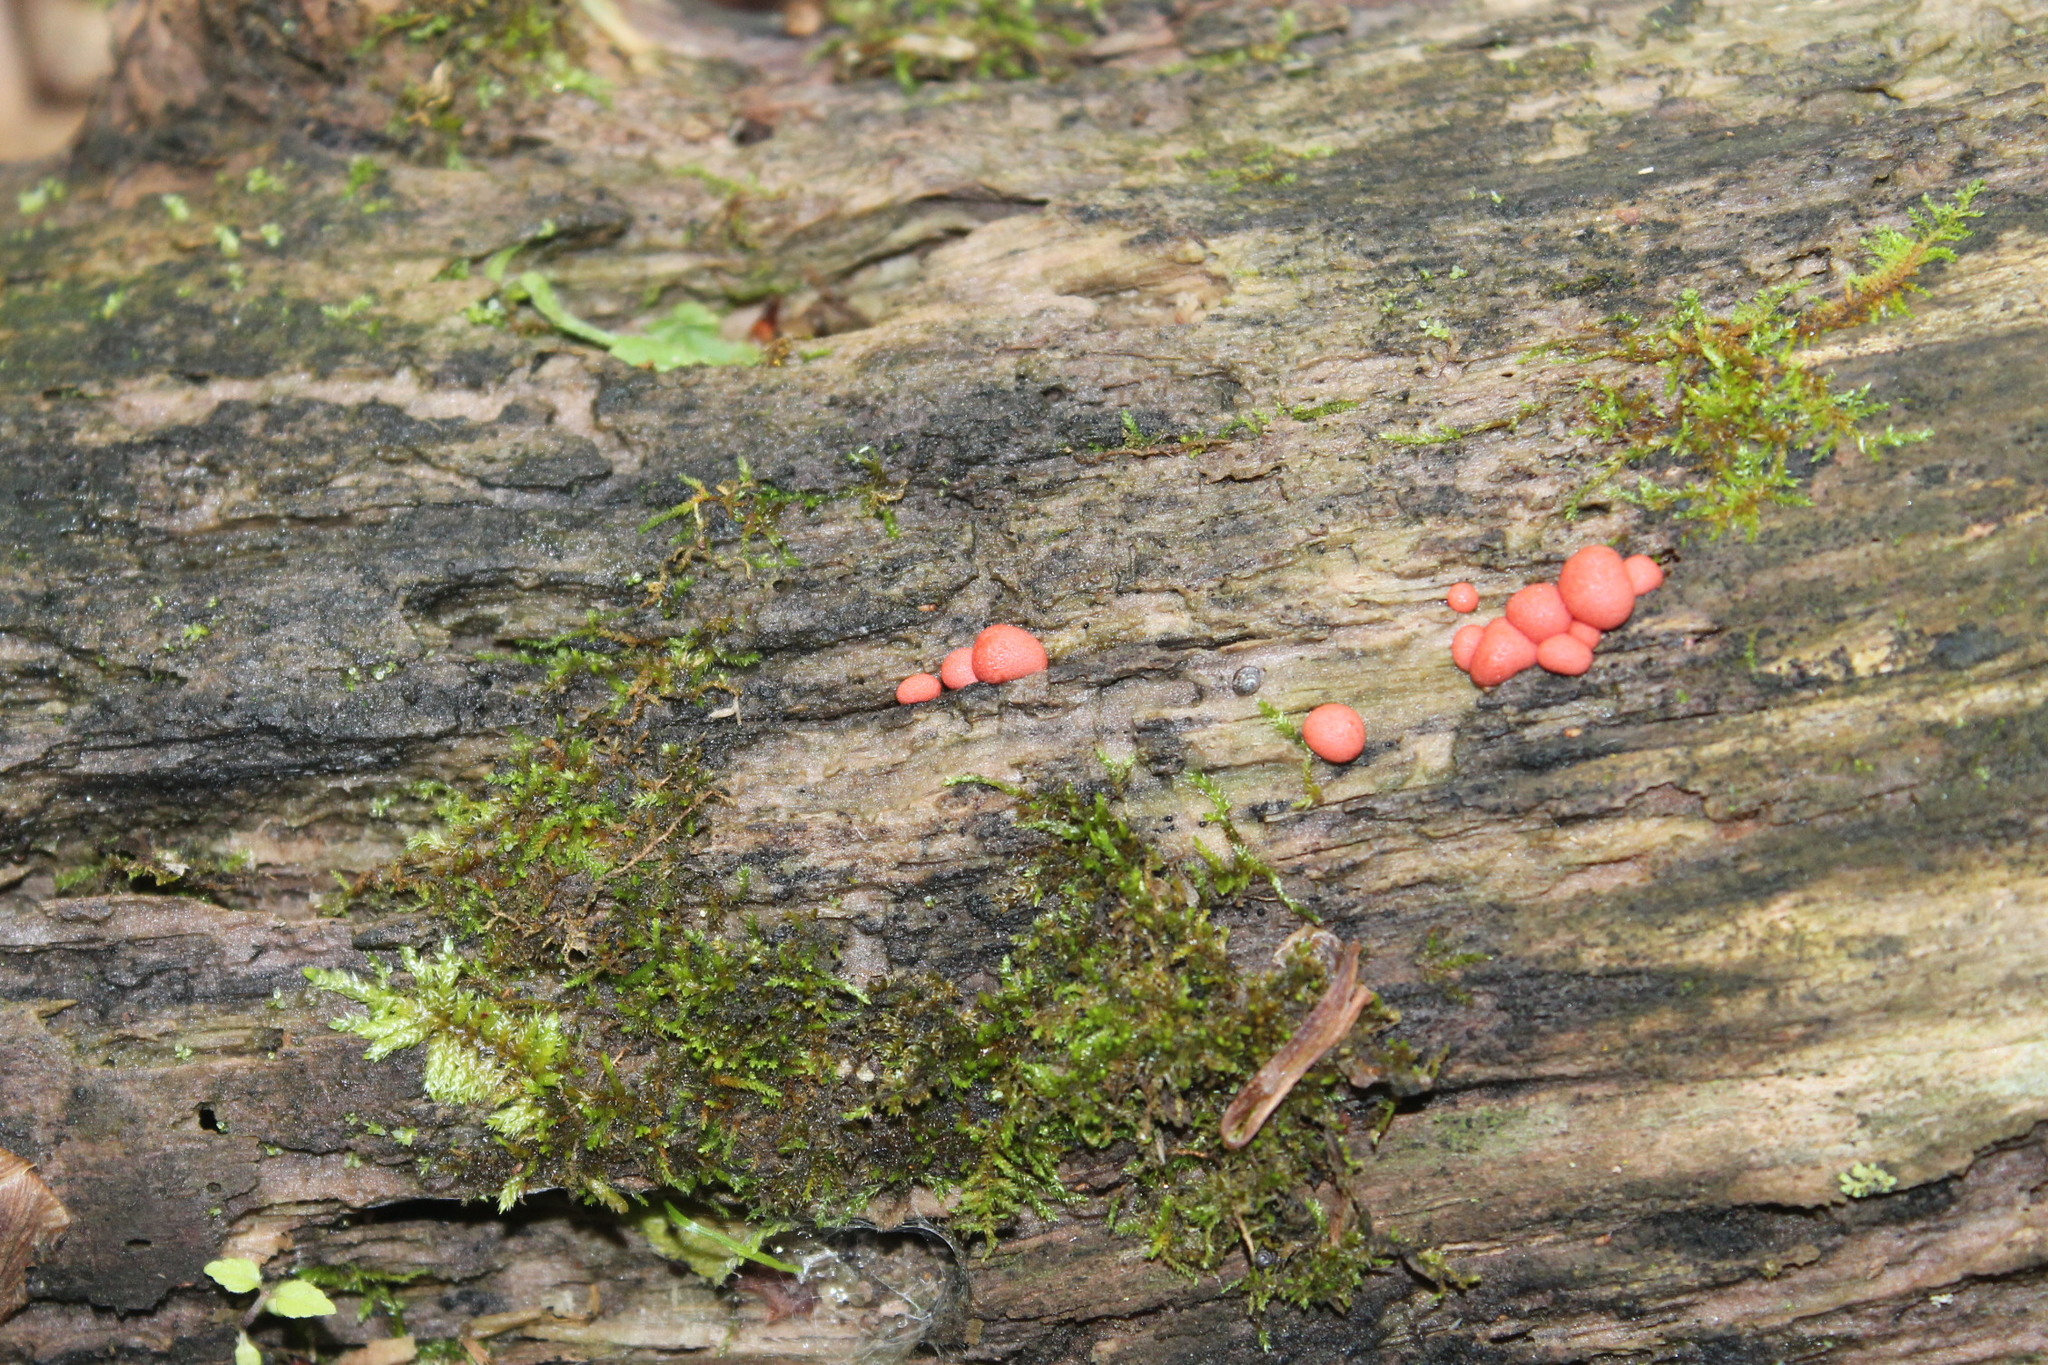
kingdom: Protozoa
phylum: Mycetozoa
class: Myxomycetes
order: Cribrariales
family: Tubiferaceae
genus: Lycogala
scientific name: Lycogala epidendrum
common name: Wolf's milk
